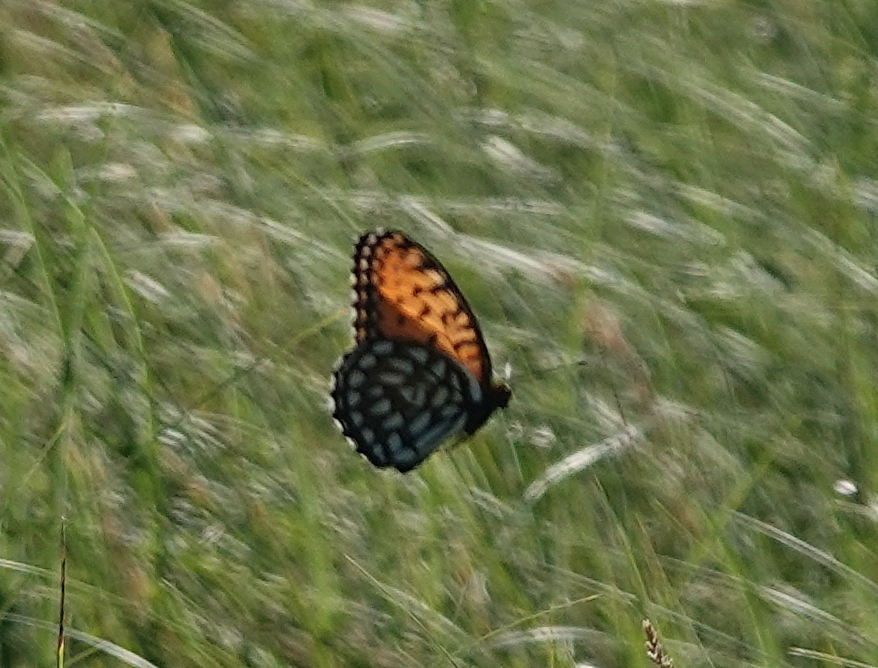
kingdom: Animalia
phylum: Arthropoda
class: Insecta
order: Lepidoptera
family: Nymphalidae
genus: Speyeria
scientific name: Speyeria idalia
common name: Regal fritillary
